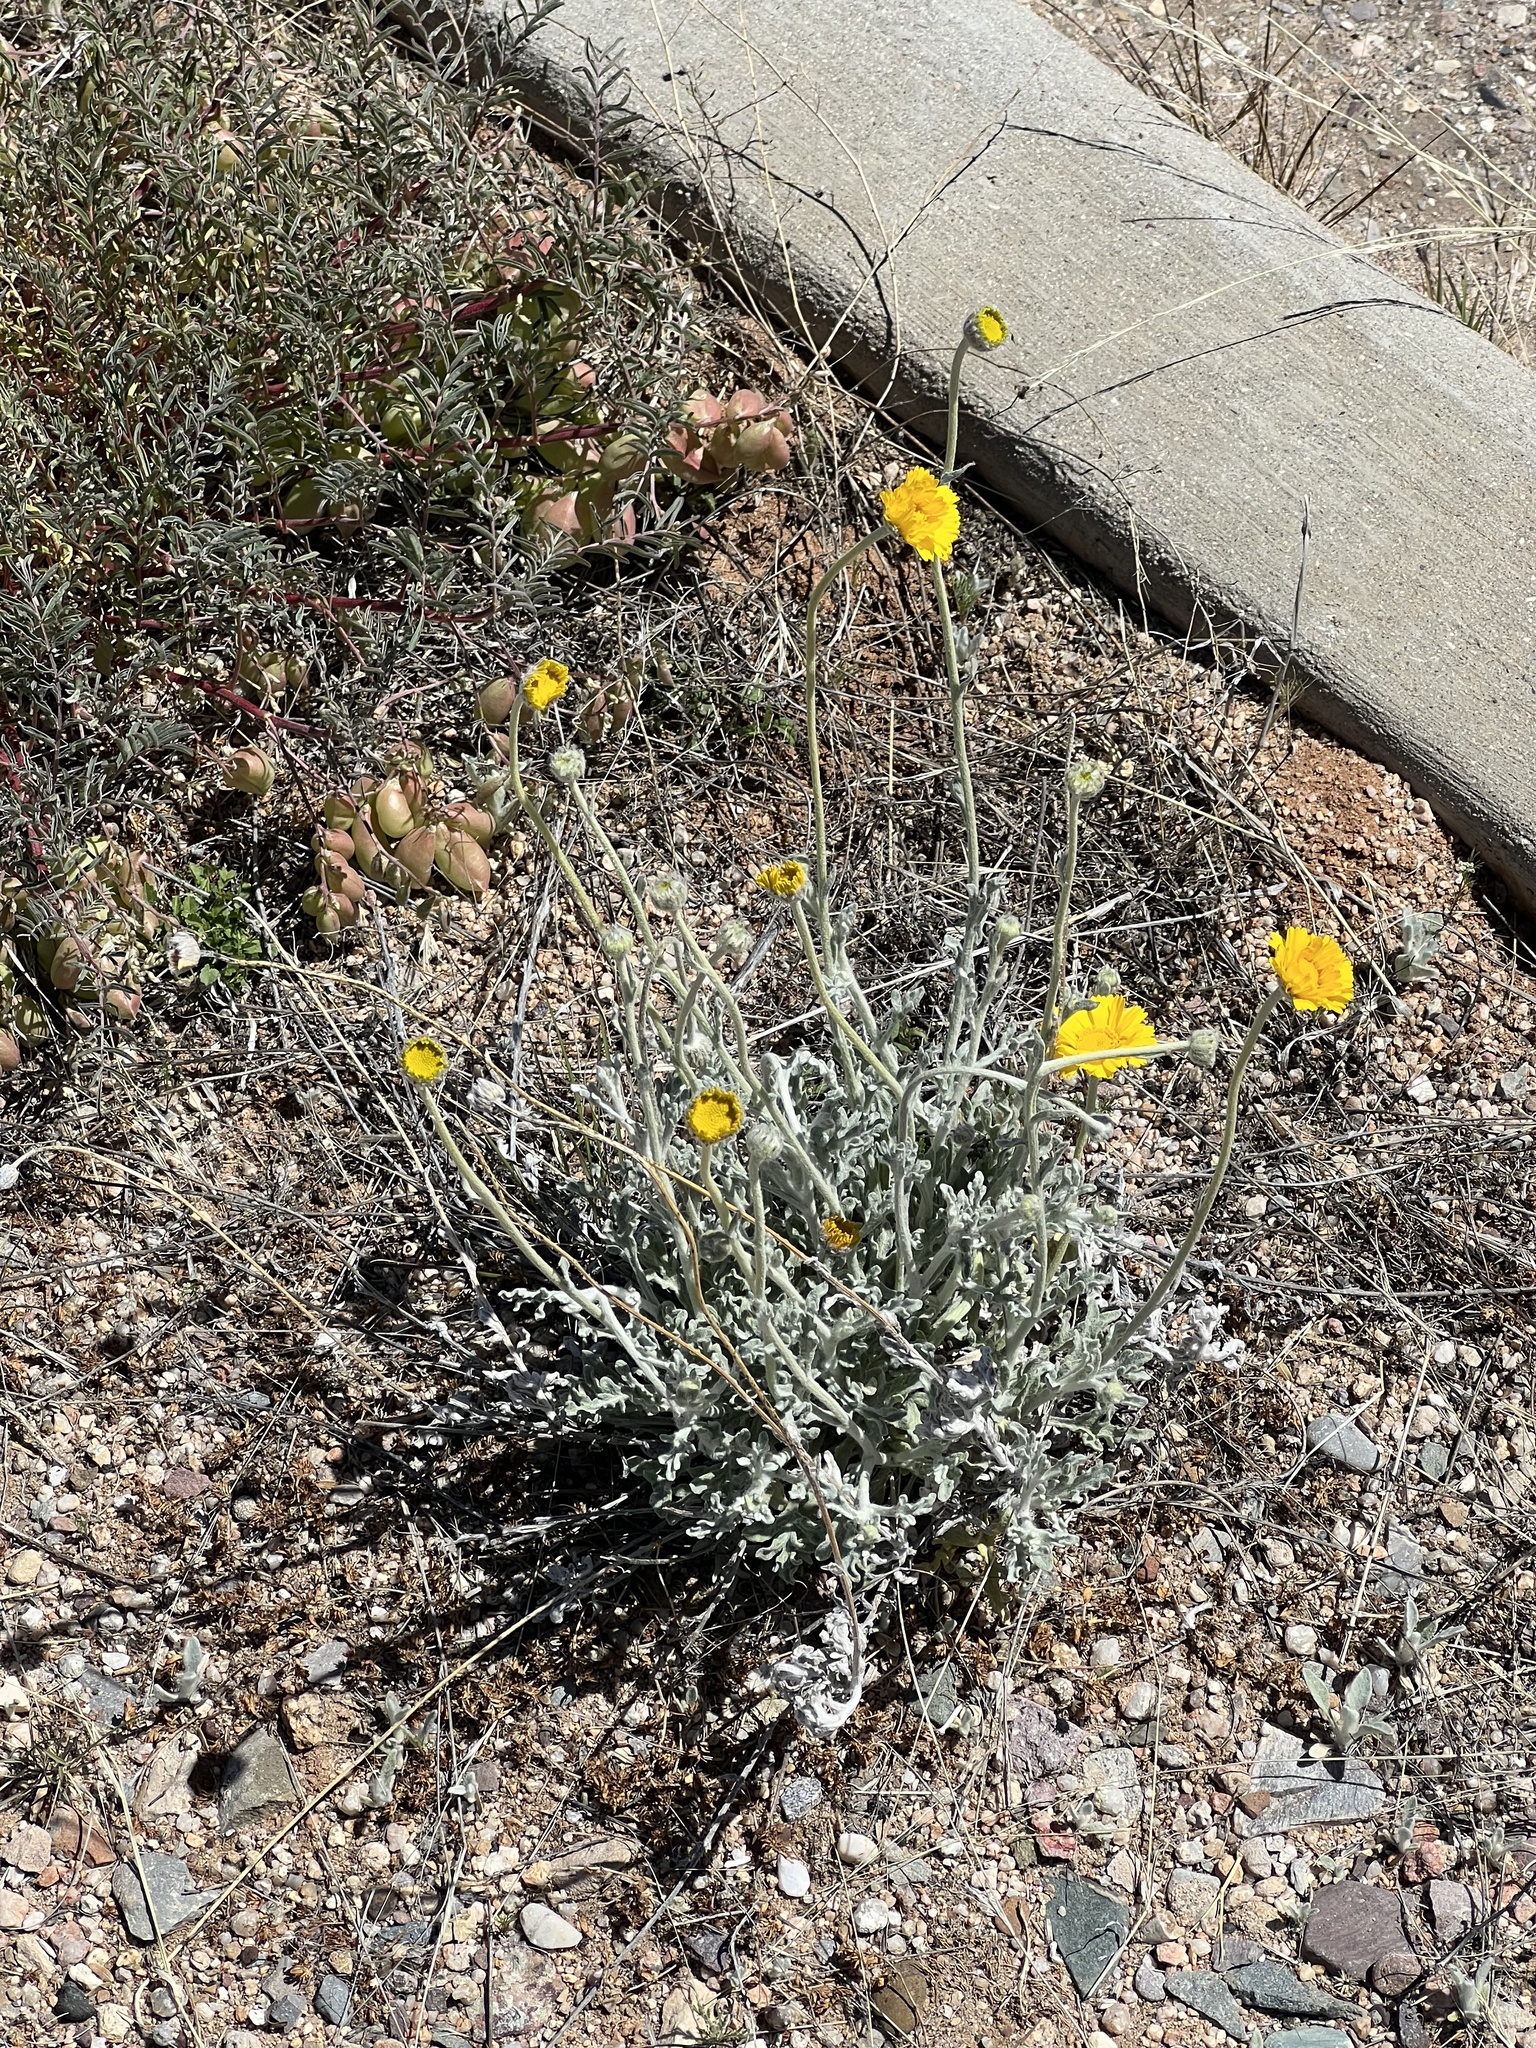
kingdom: Plantae
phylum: Tracheophyta
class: Magnoliopsida
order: Asterales
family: Asteraceae
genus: Baileya
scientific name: Baileya multiradiata
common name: Desert-marigold
